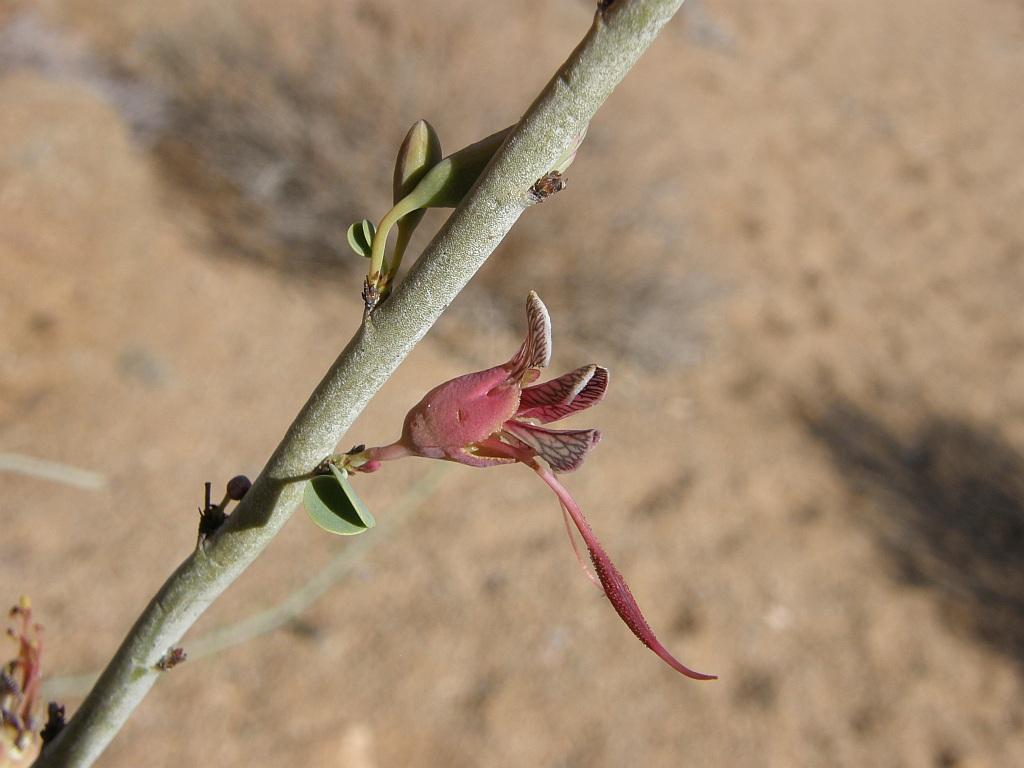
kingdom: Plantae
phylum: Tracheophyta
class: Magnoliopsida
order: Fabales
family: Fabaceae
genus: Adenolobus
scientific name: Adenolobus garipensis
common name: Butterfly-leaf
